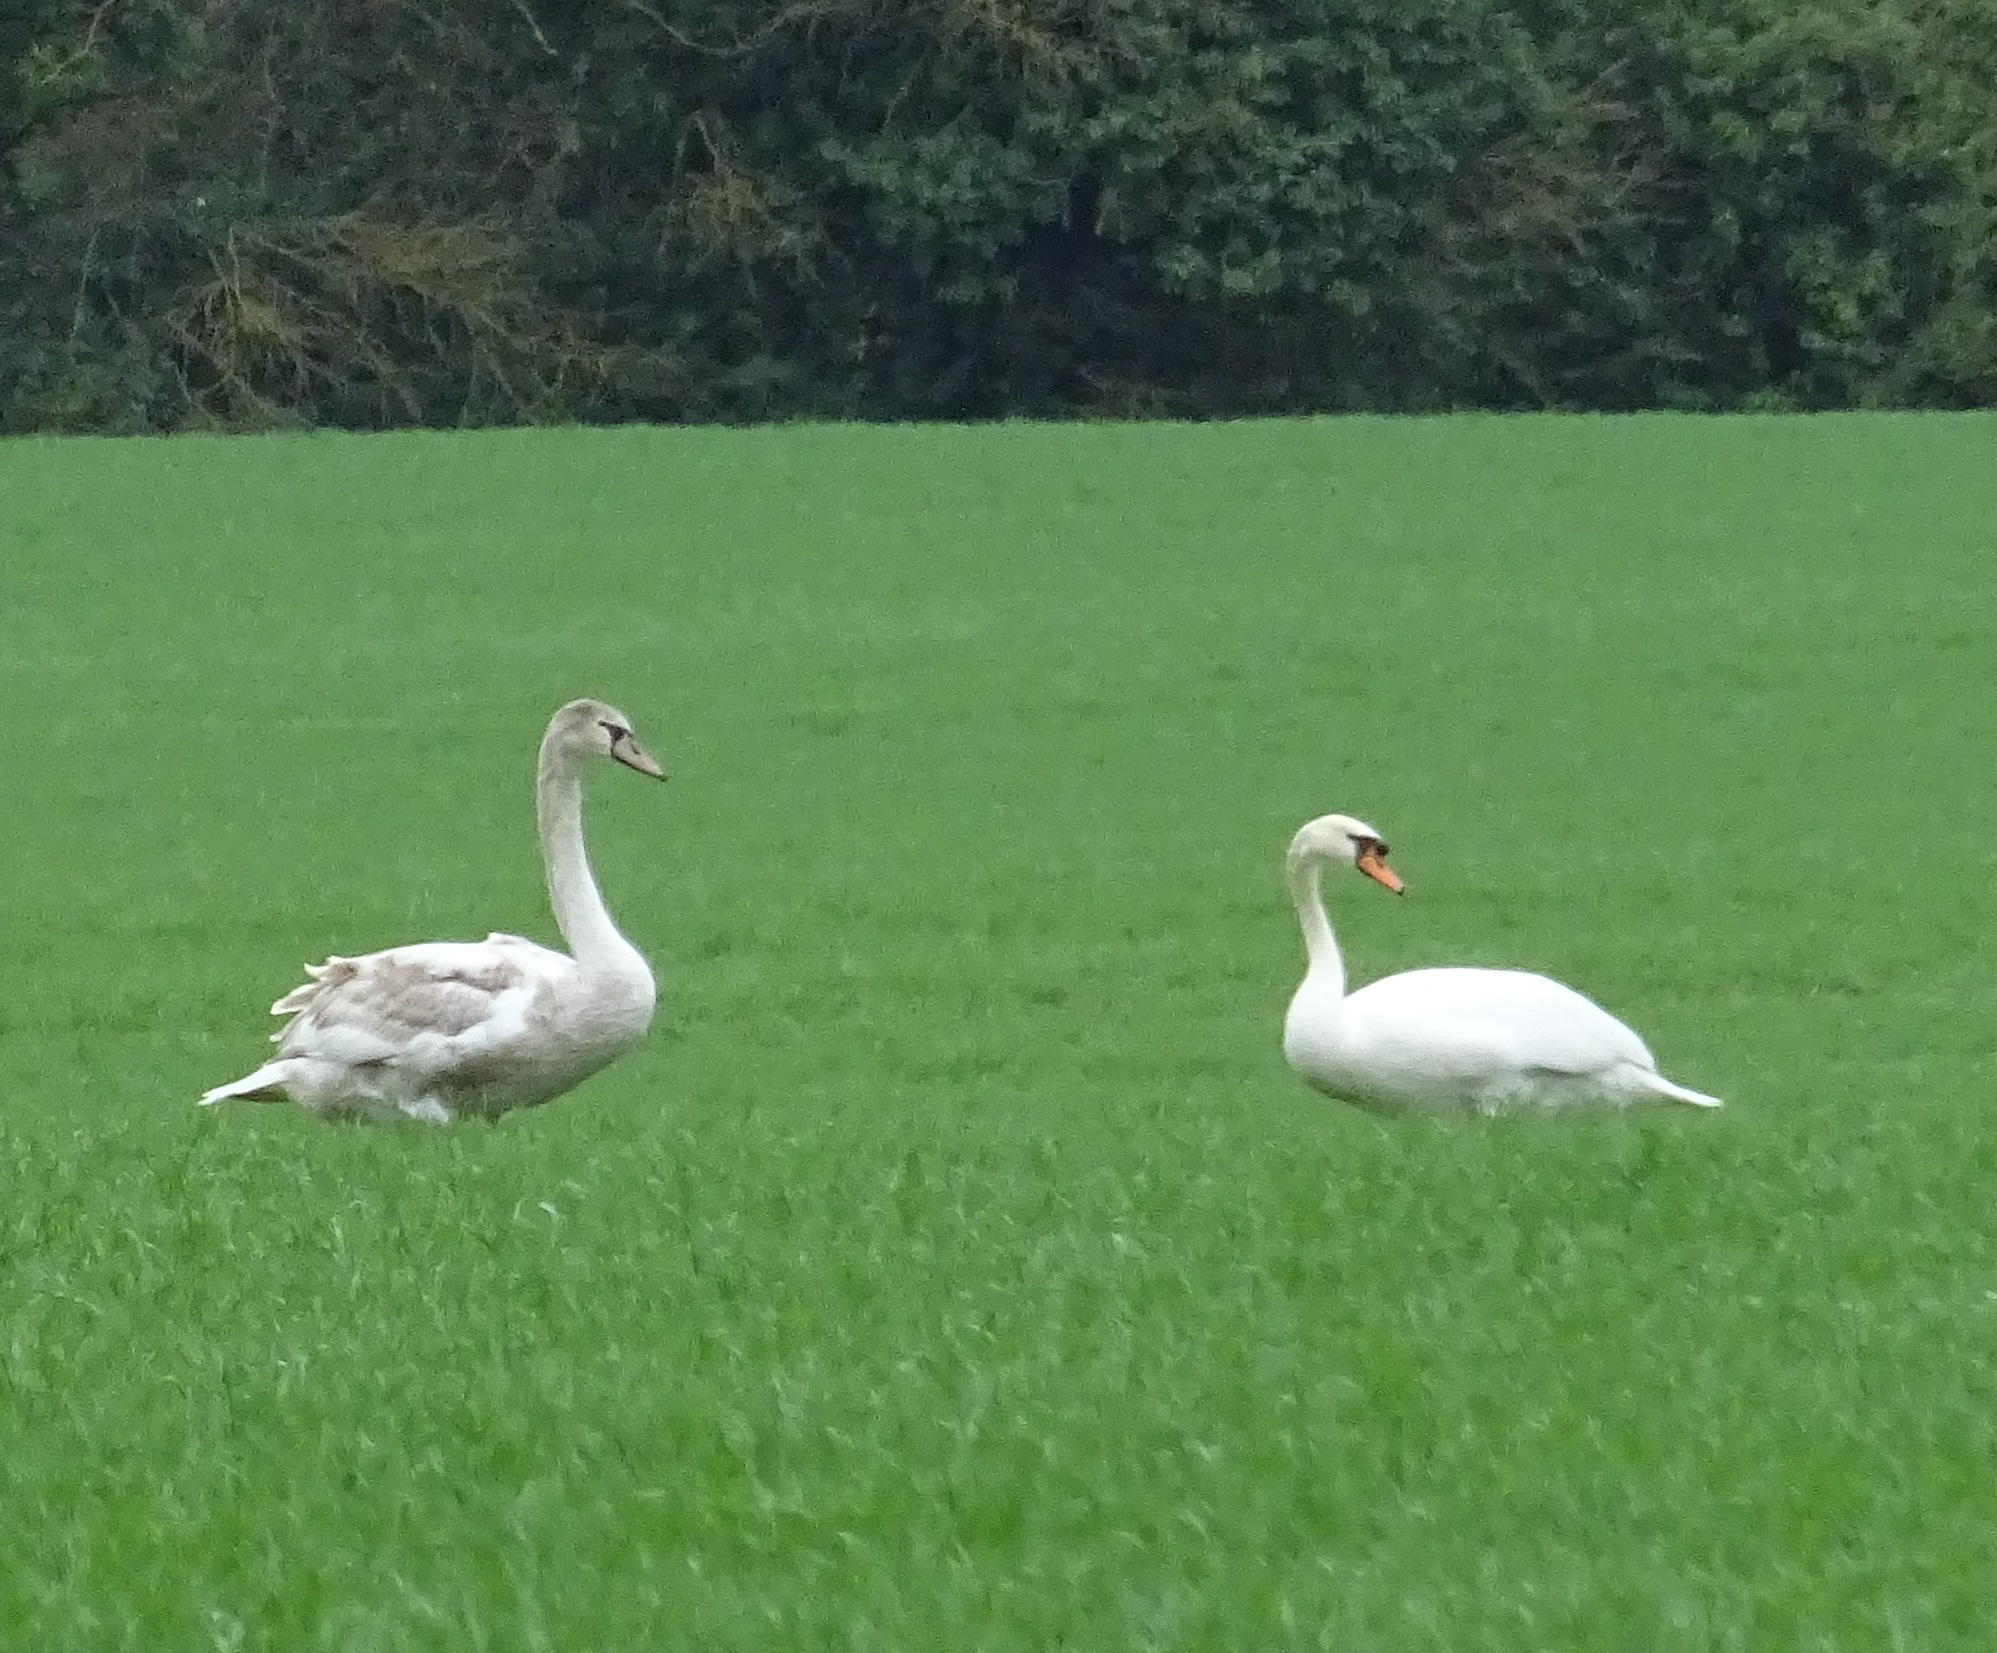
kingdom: Animalia
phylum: Chordata
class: Aves
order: Anseriformes
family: Anatidae
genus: Cygnus
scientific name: Cygnus olor
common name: Mute swan
